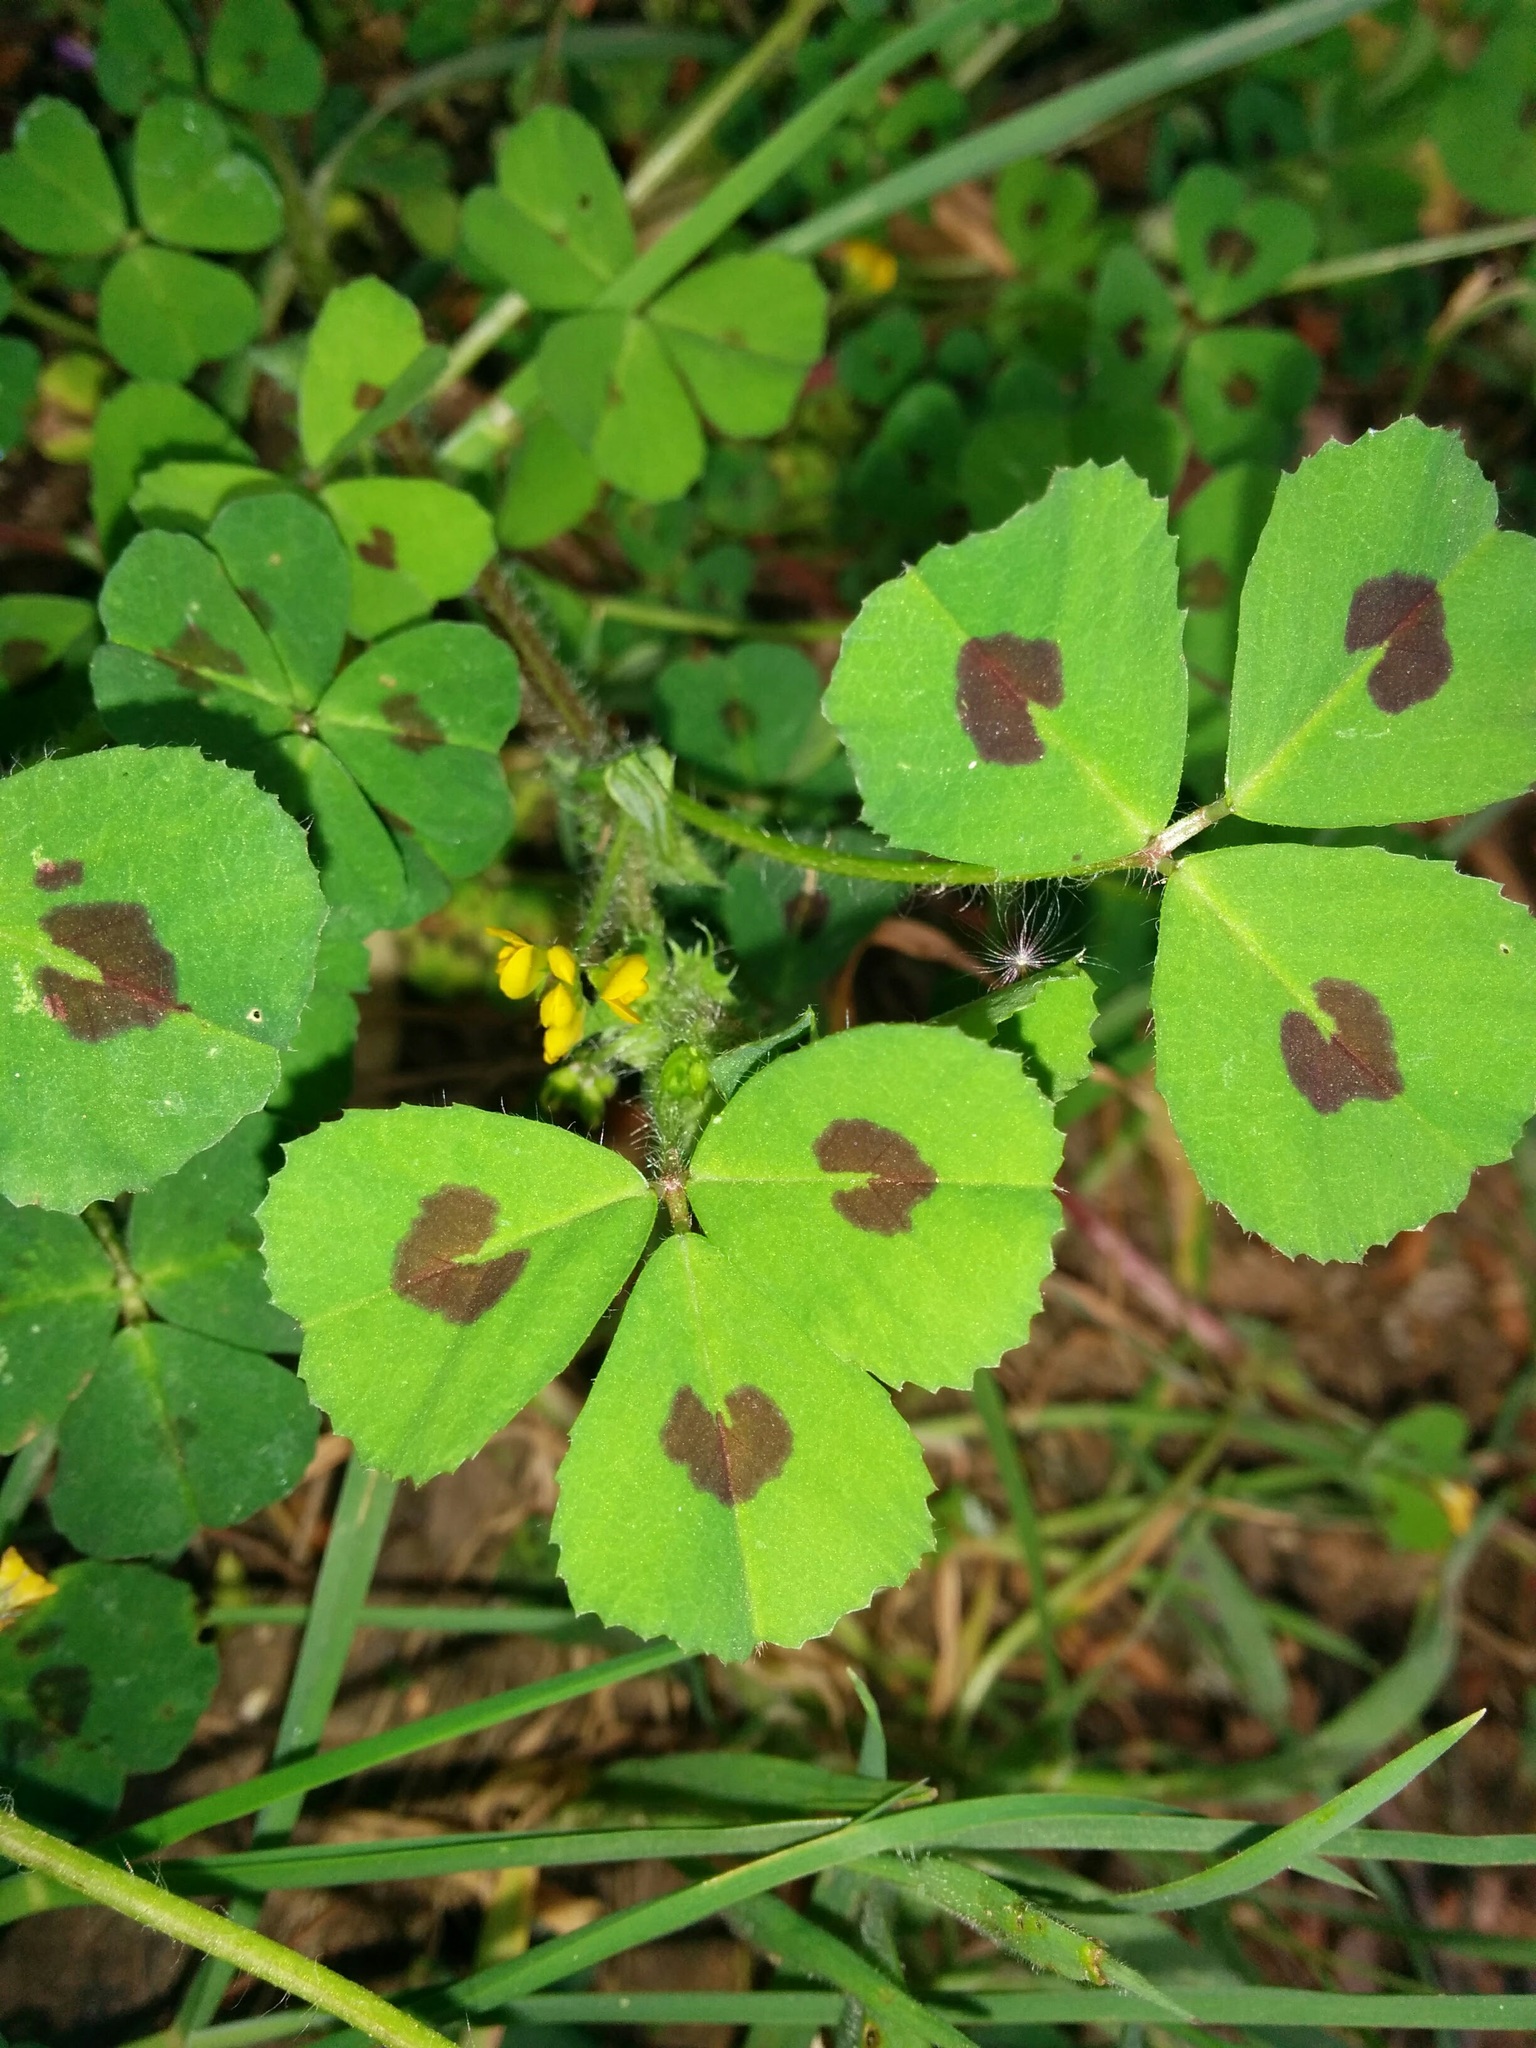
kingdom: Plantae
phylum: Tracheophyta
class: Magnoliopsida
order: Fabales
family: Fabaceae
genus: Medicago
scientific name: Medicago arabica
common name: Spotted medick
